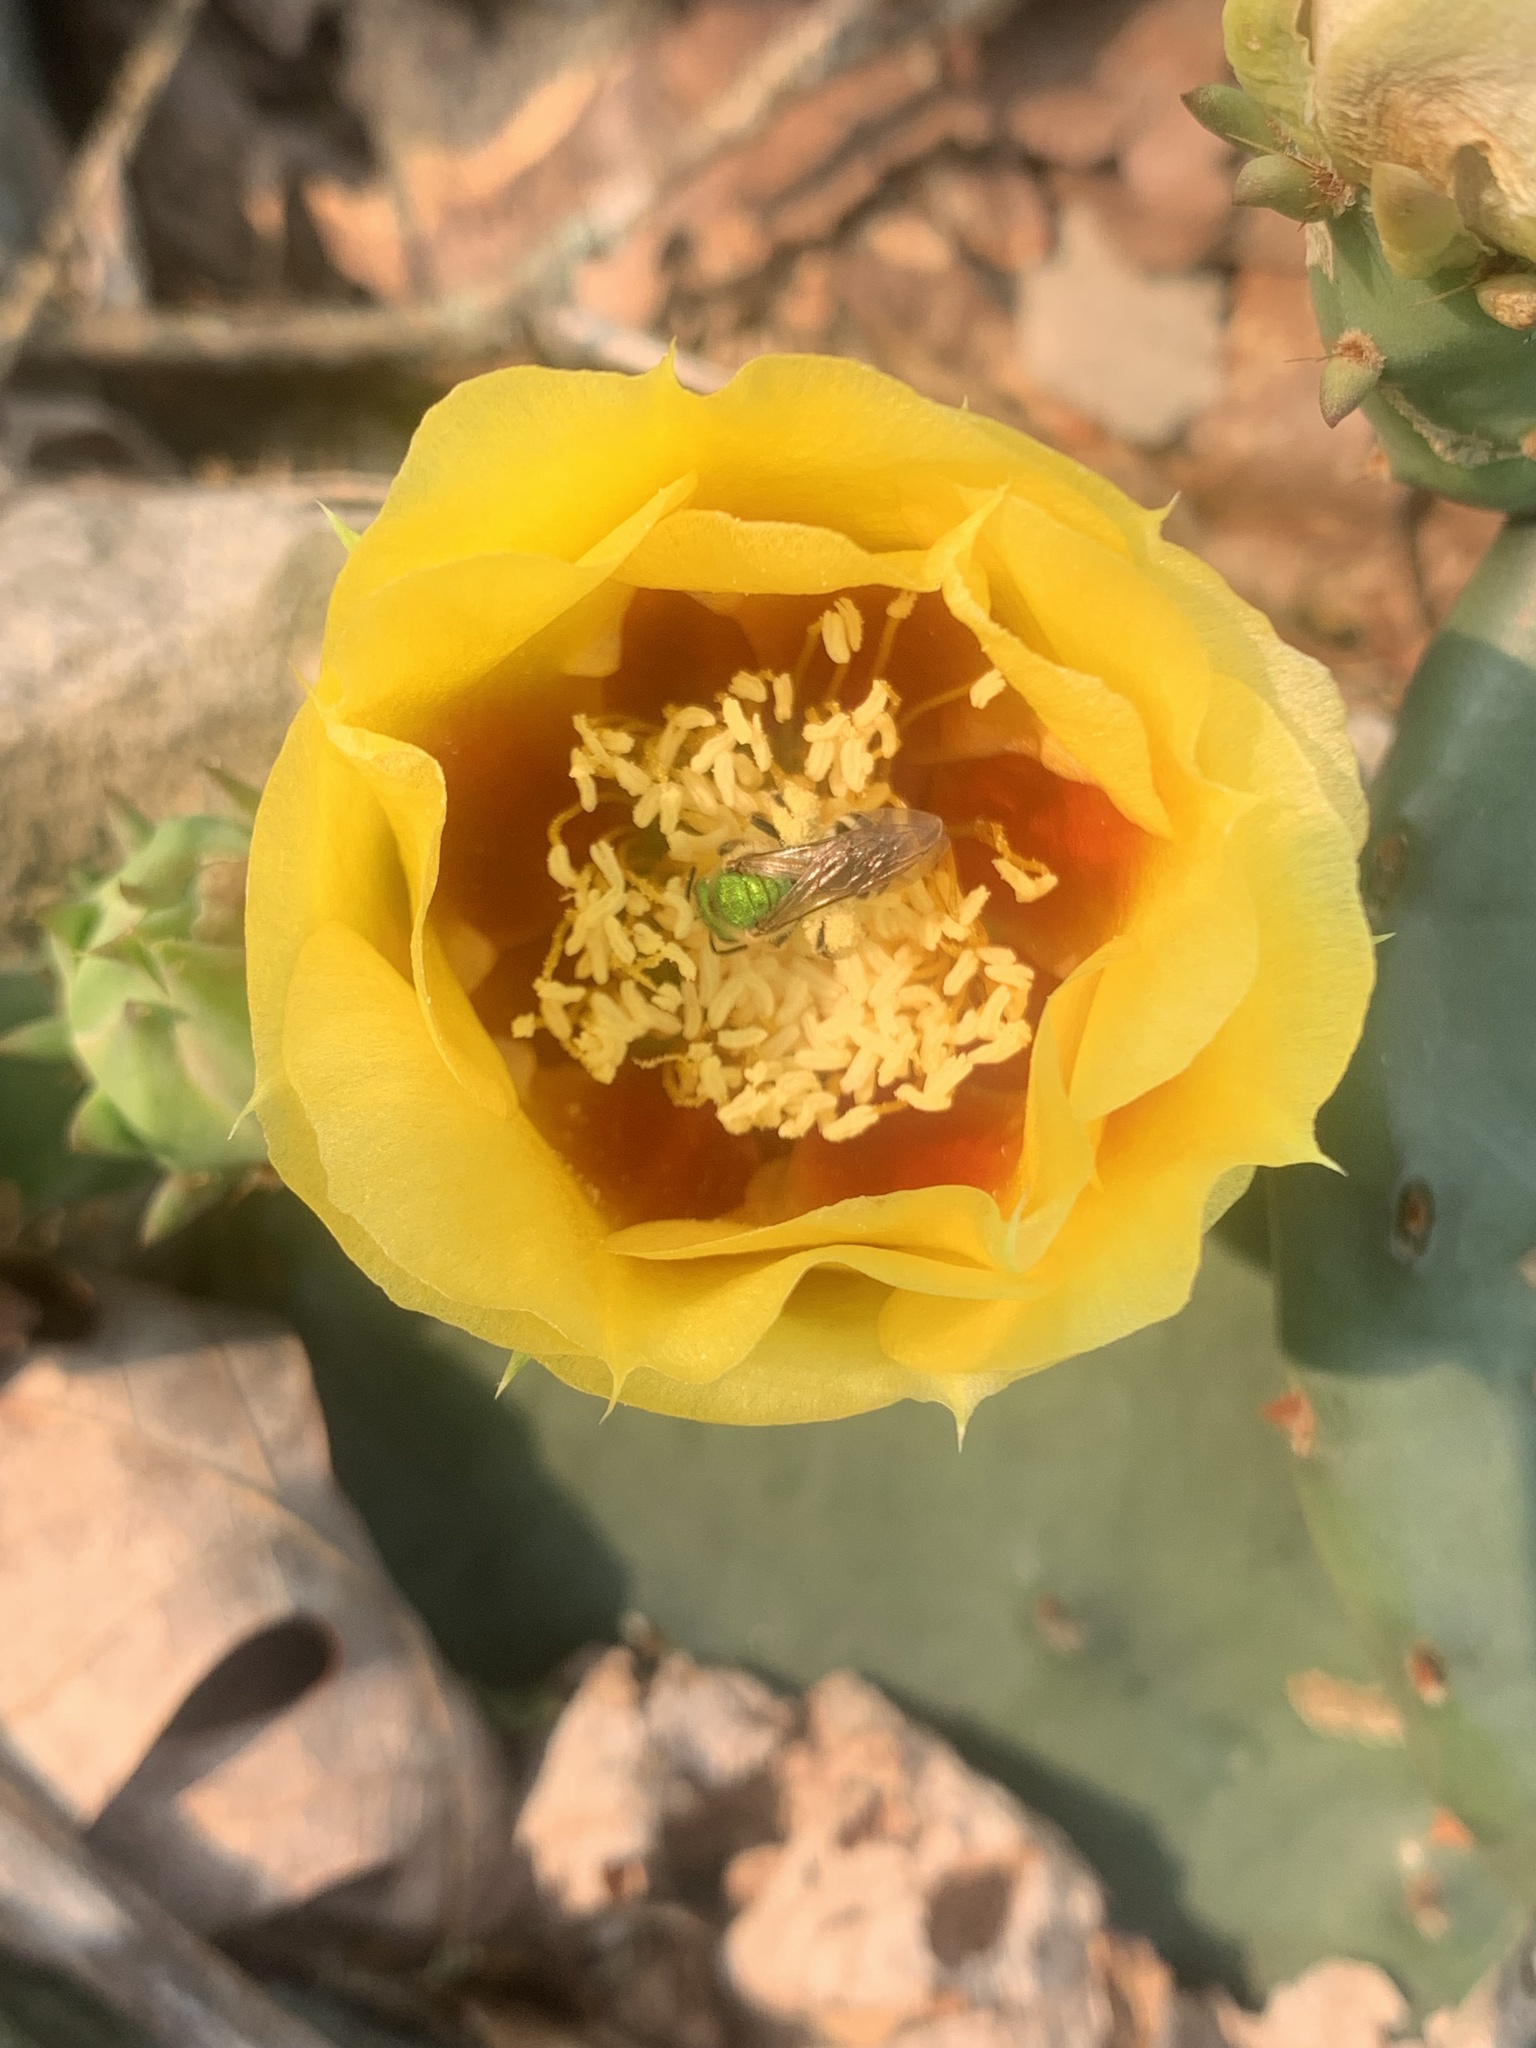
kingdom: Animalia
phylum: Arthropoda
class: Insecta
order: Hymenoptera
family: Halictidae
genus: Agapostemon
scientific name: Agapostemon virescens
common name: Bicolored striped sweat bee
